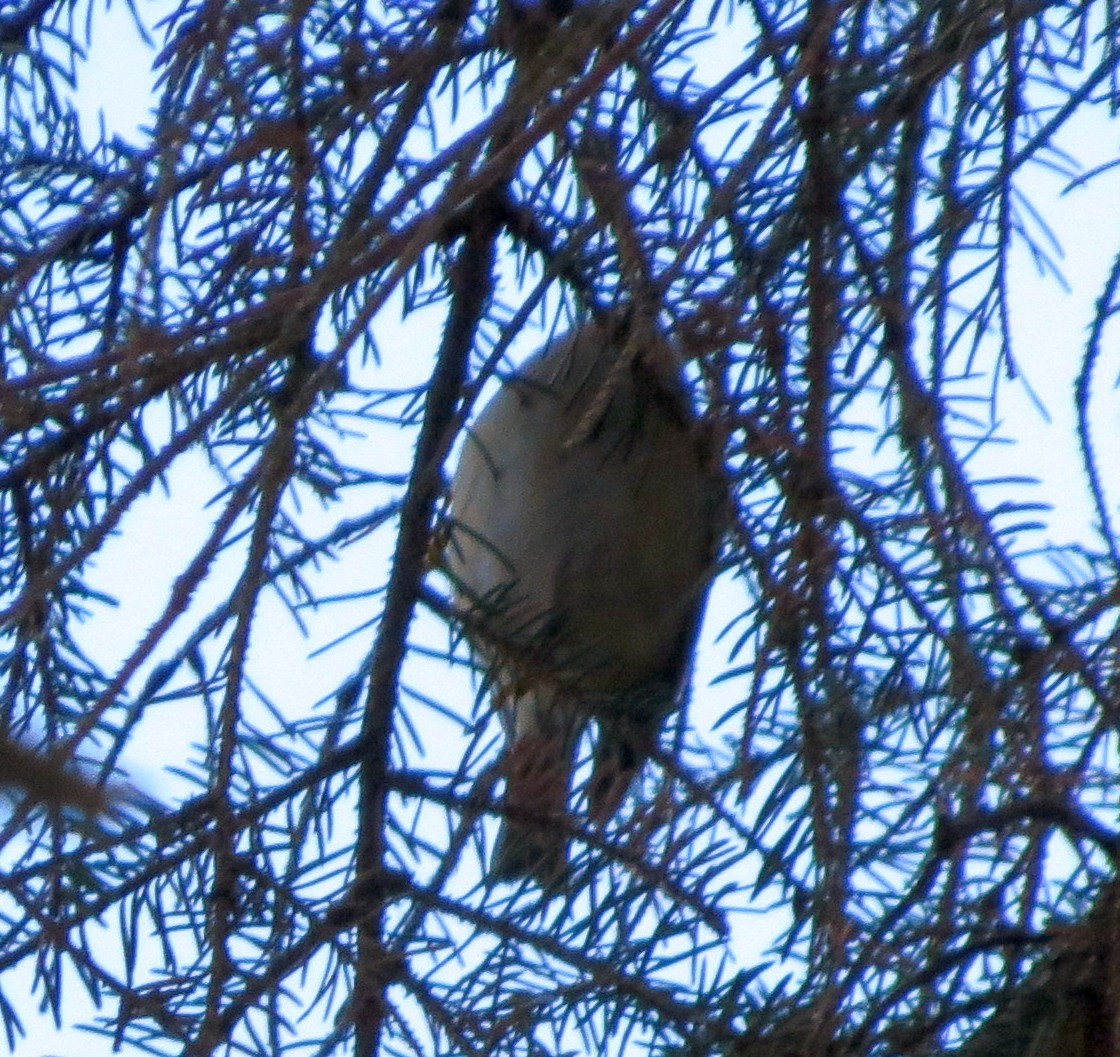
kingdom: Animalia
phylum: Chordata
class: Aves
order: Passeriformes
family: Regulidae
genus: Regulus
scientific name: Regulus regulus
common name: Goldcrest
